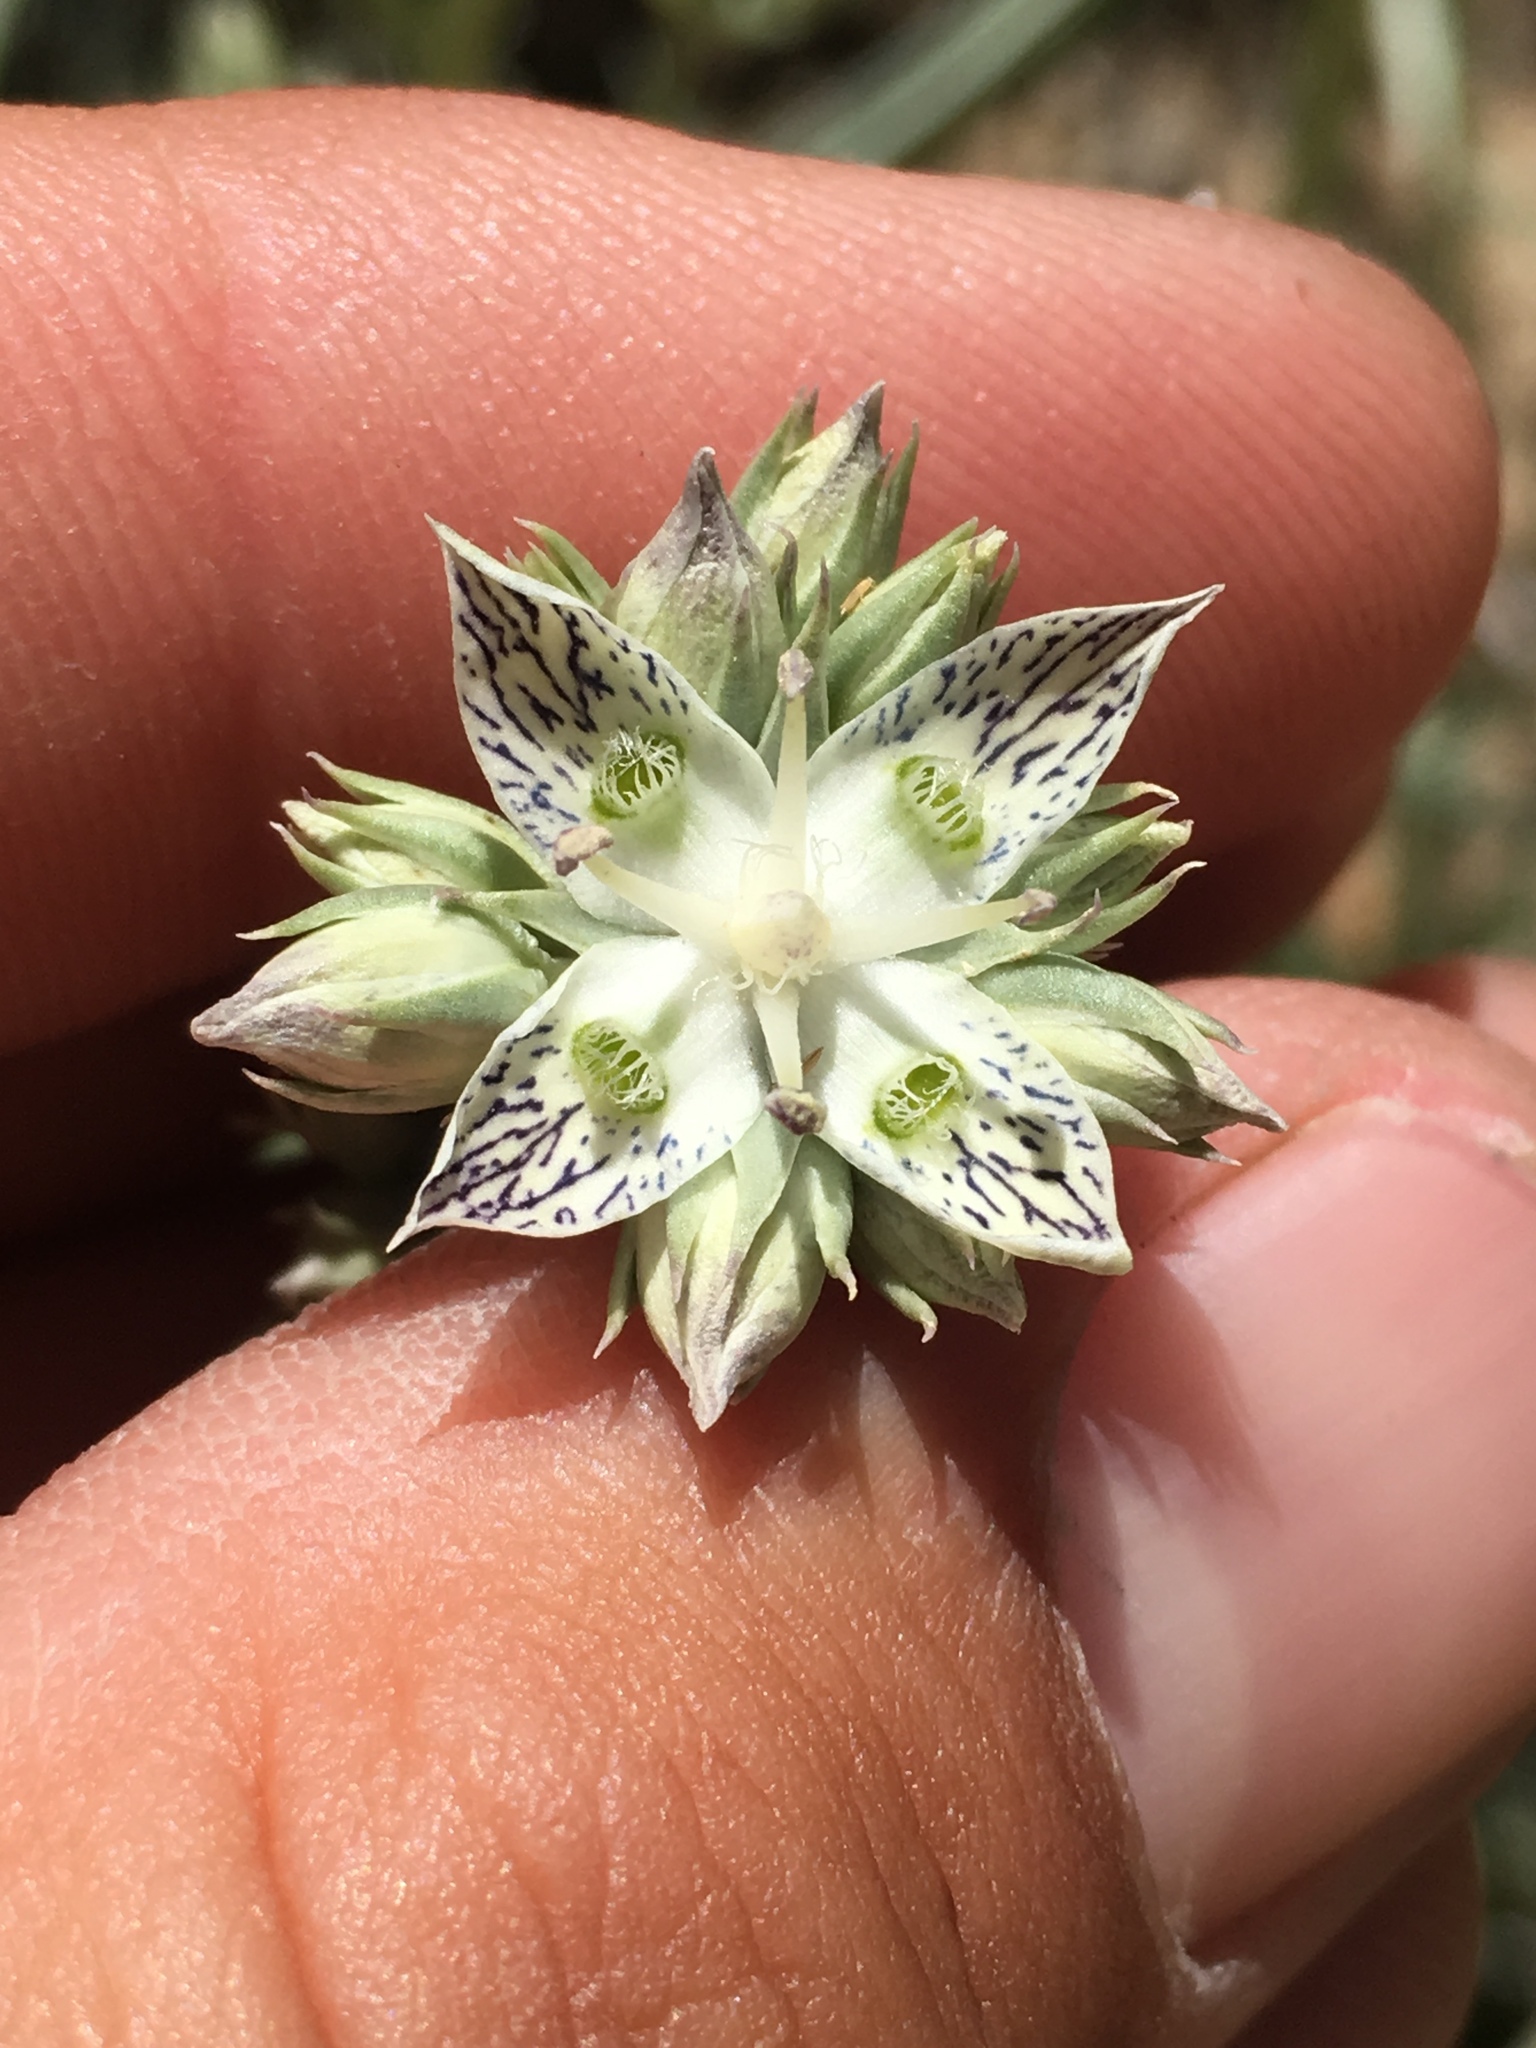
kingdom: Plantae
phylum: Tracheophyta
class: Magnoliopsida
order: Gentianales
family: Gentianaceae
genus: Frasera
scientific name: Frasera neglecta
